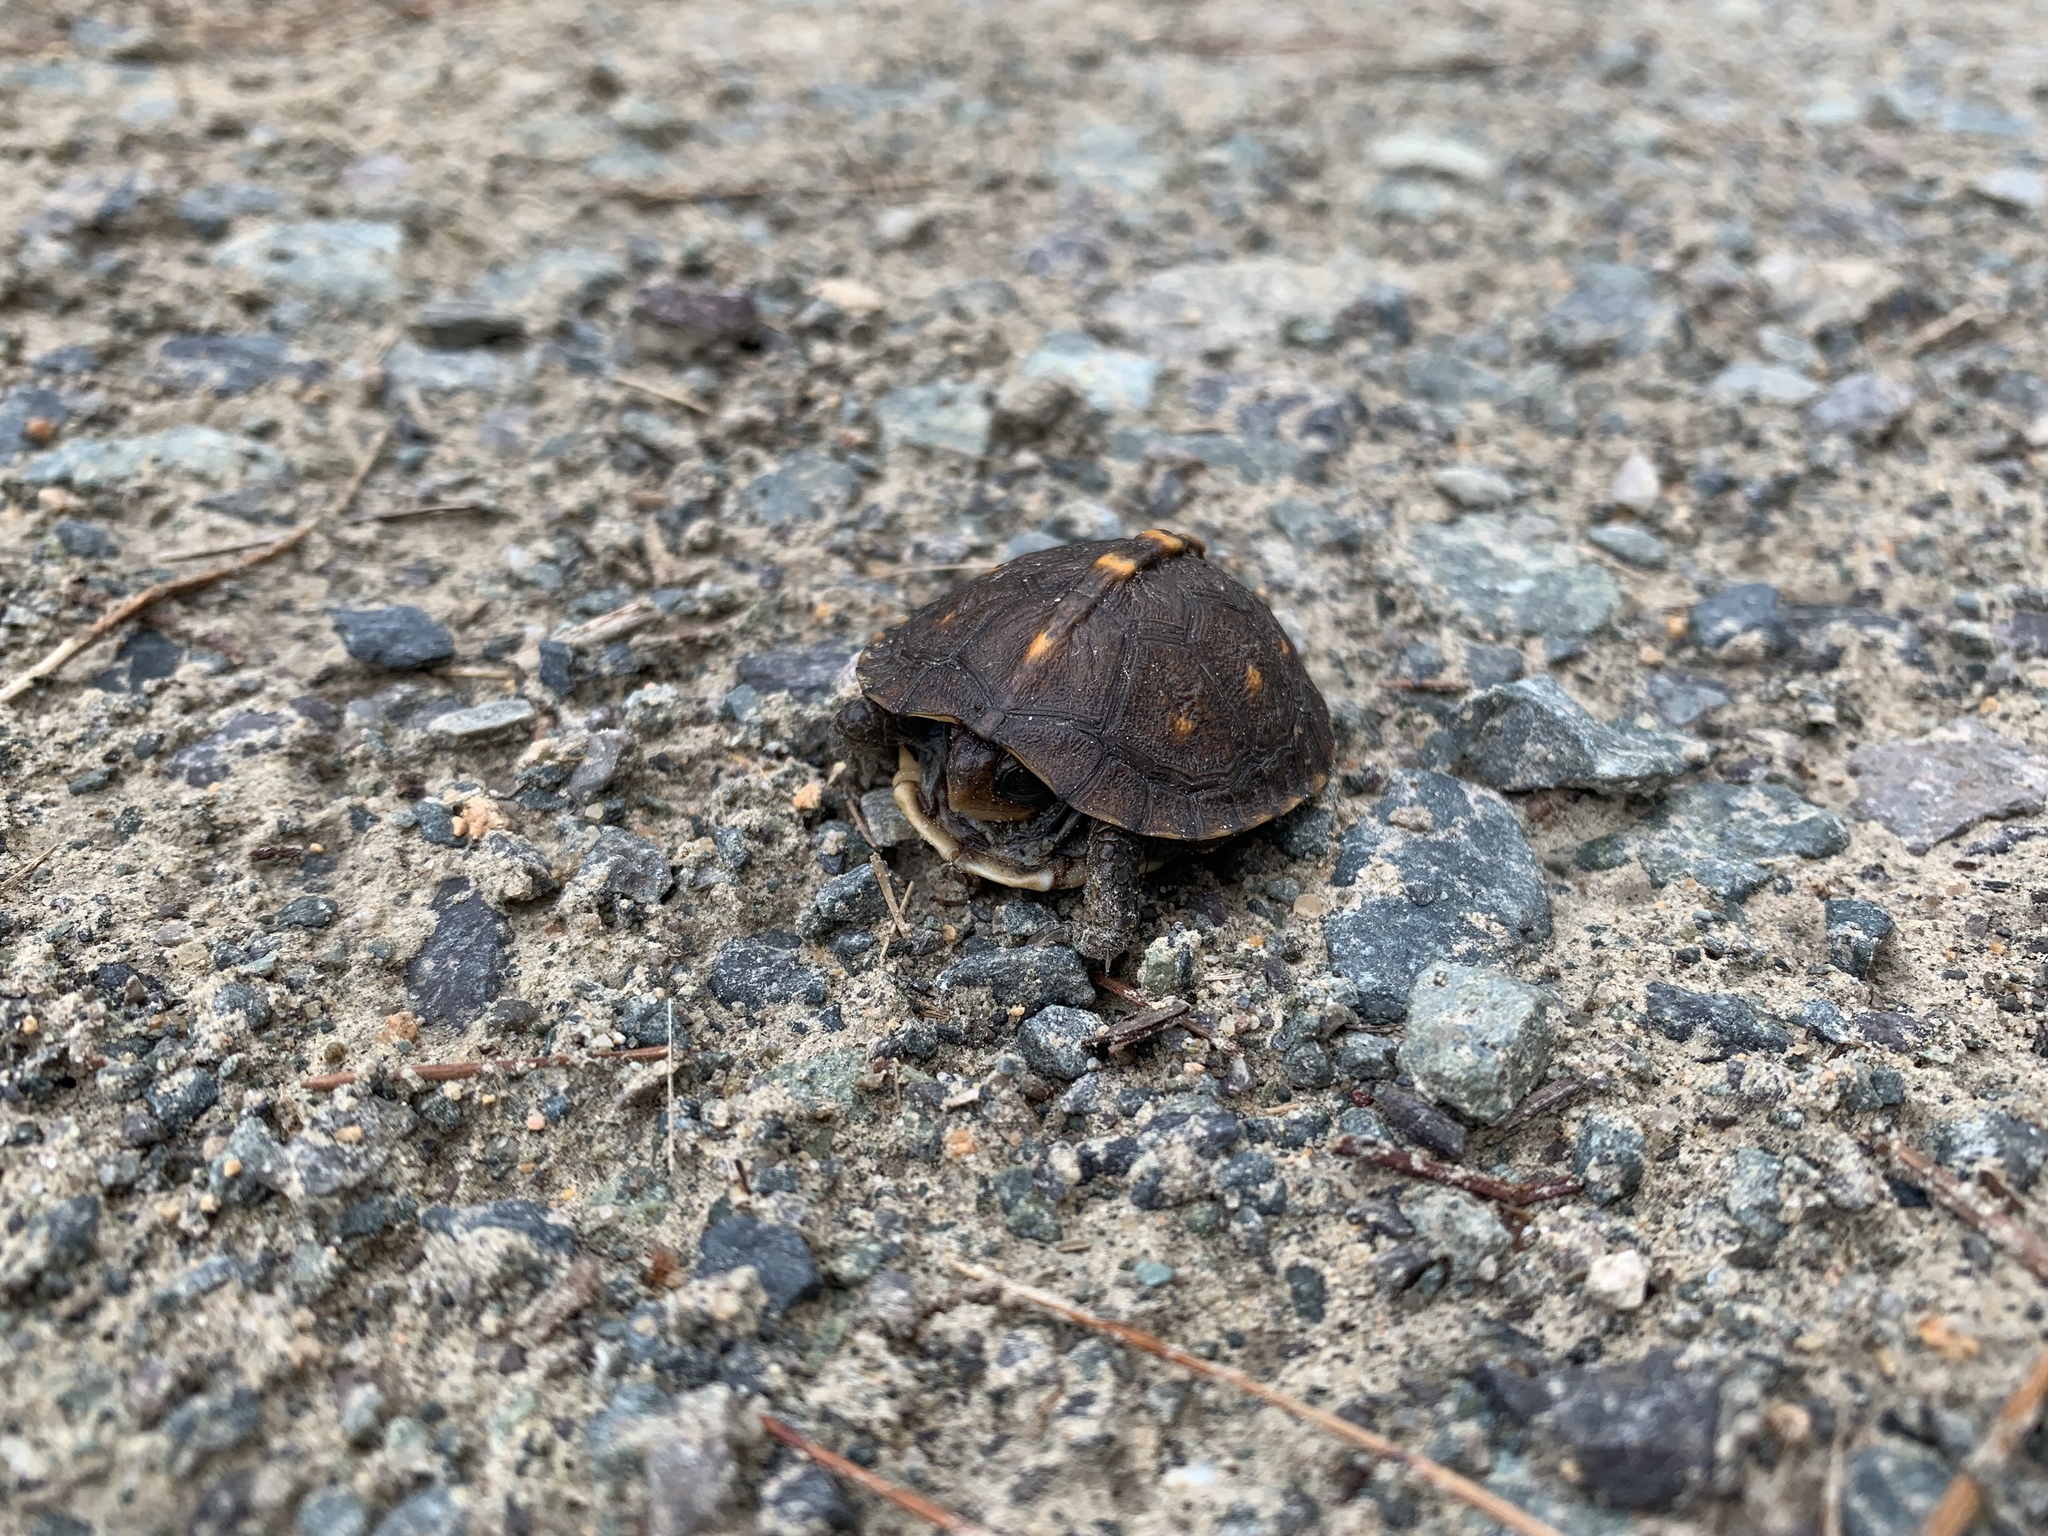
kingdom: Animalia
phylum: Chordata
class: Testudines
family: Emydidae
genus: Terrapene
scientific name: Terrapene carolina
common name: Common box turtle
